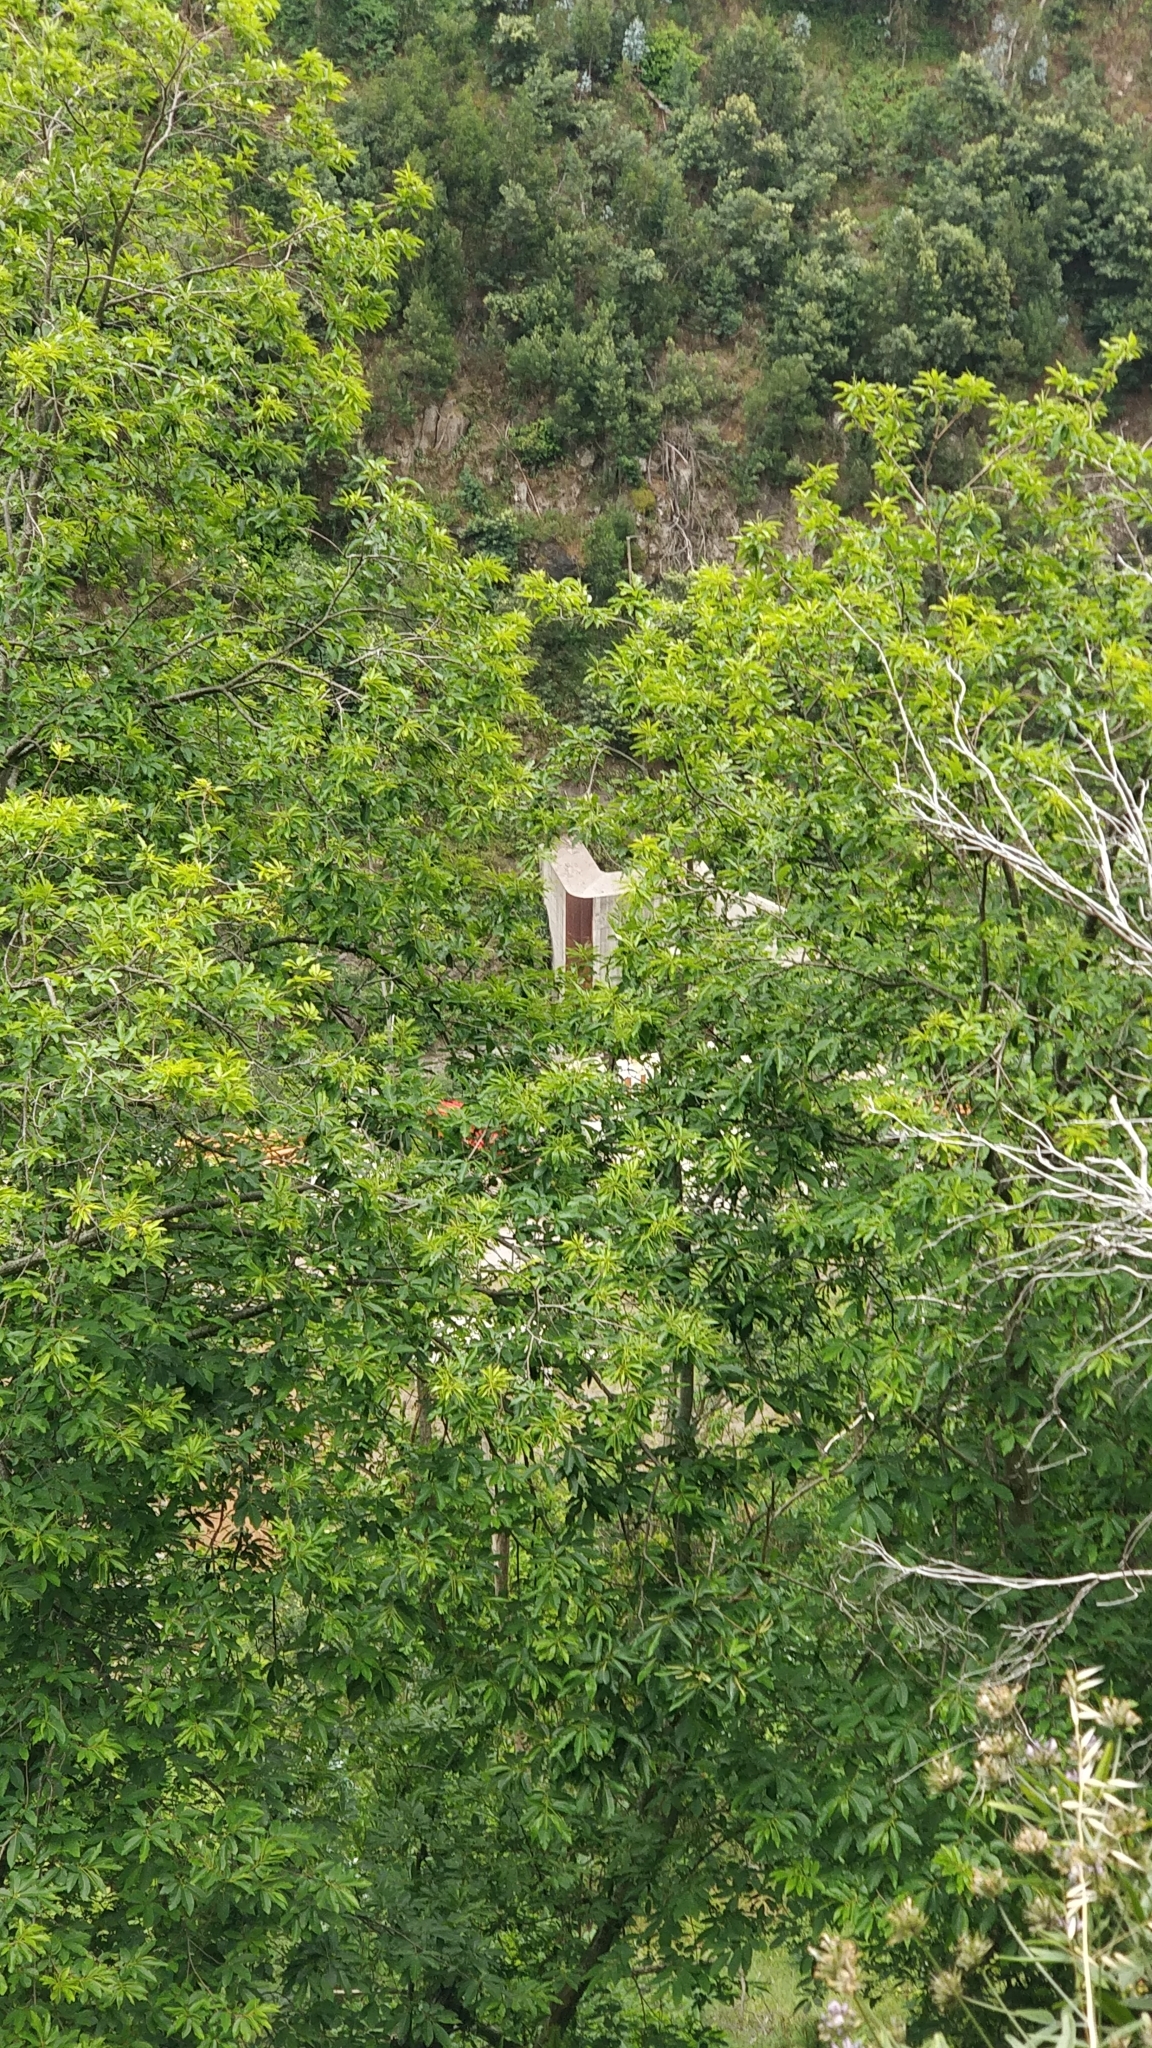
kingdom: Plantae
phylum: Tracheophyta
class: Magnoliopsida
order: Fagales
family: Fagaceae
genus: Castanea
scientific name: Castanea sativa
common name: Sweet chestnut
